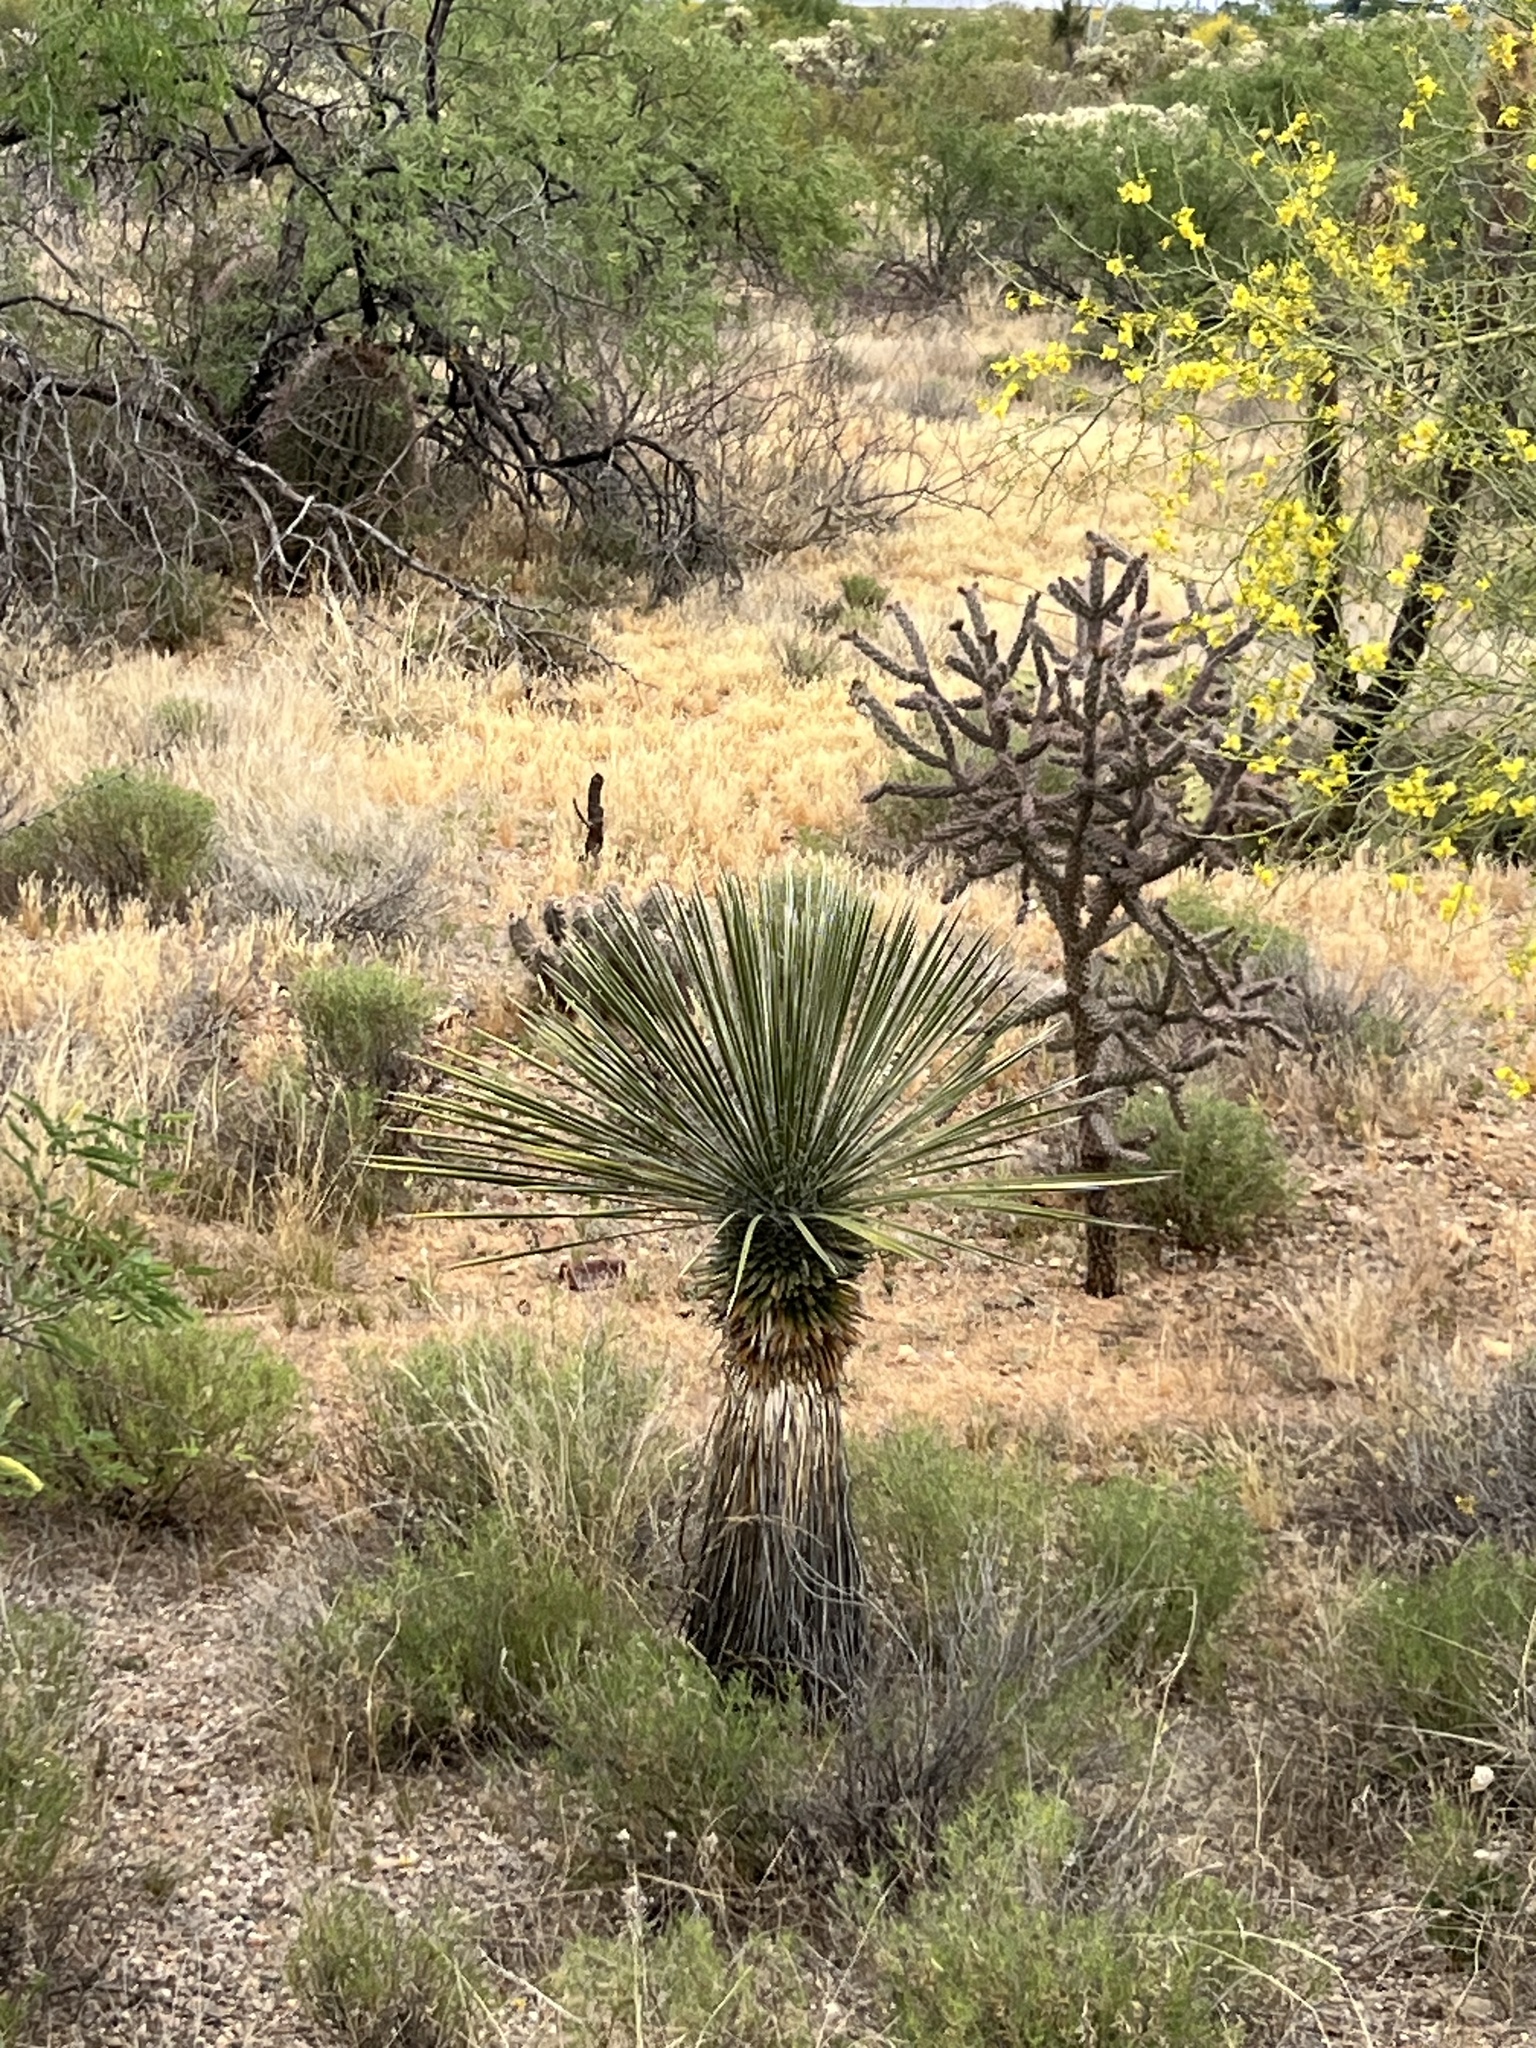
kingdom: Plantae
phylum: Tracheophyta
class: Liliopsida
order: Asparagales
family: Asparagaceae
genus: Yucca
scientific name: Yucca elata
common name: Palmella
